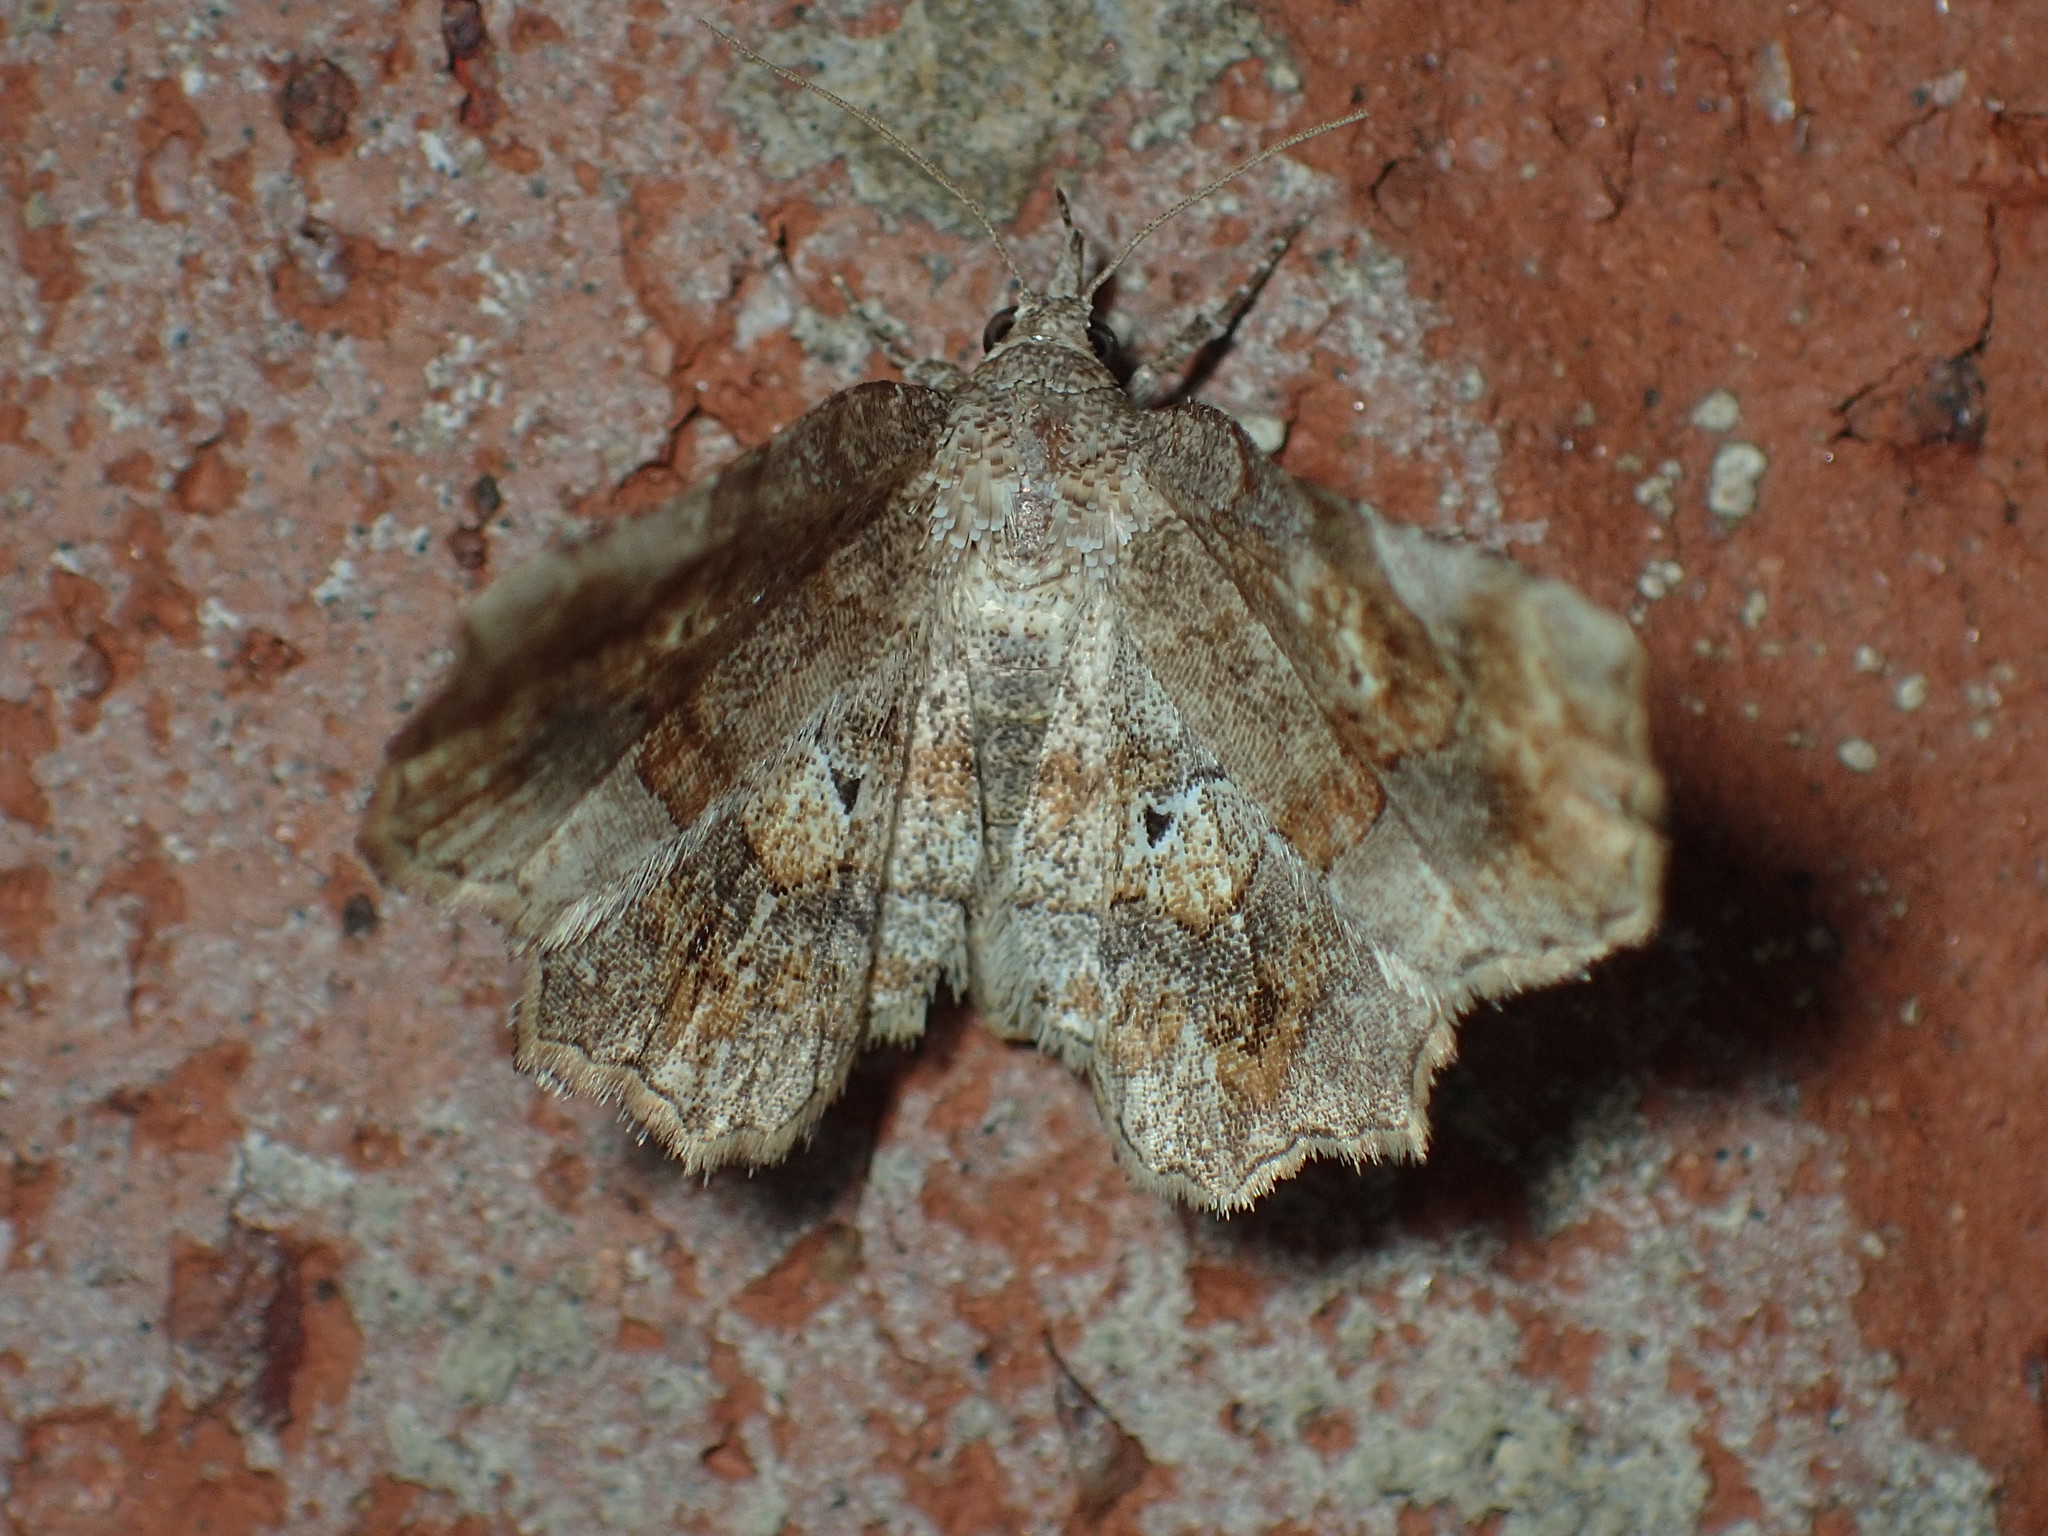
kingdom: Animalia
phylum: Arthropoda
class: Insecta
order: Lepidoptera
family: Erebidae
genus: Pangrapta
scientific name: Pangrapta decoralis
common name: Decorated owlet
